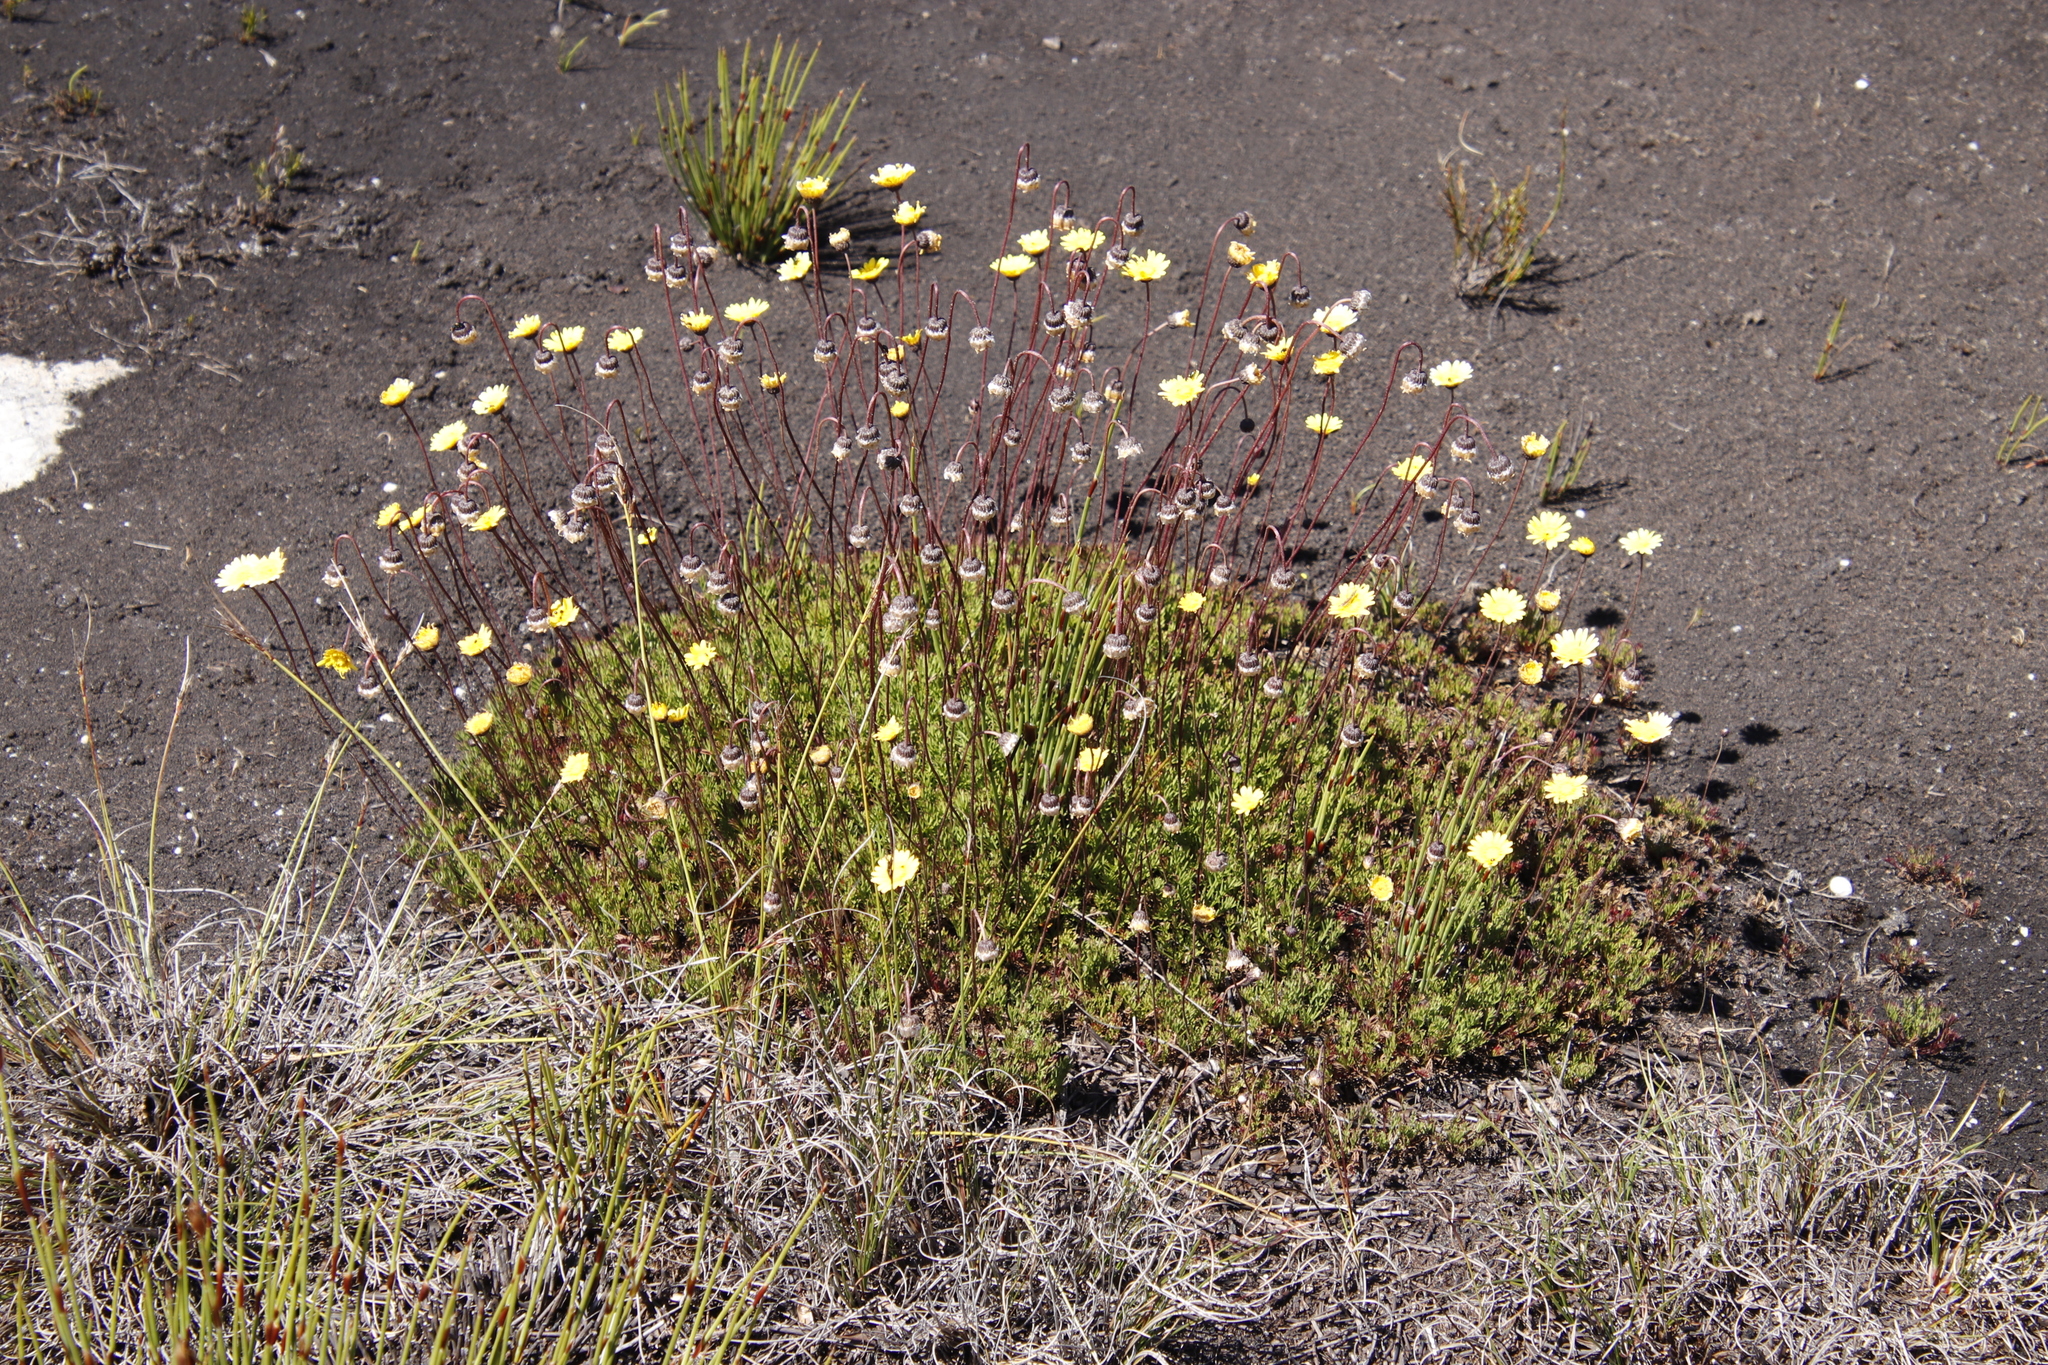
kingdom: Plantae
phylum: Tracheophyta
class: Magnoliopsida
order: Asterales
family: Asteraceae
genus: Ursinia
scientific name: Ursinia nudicaulis
